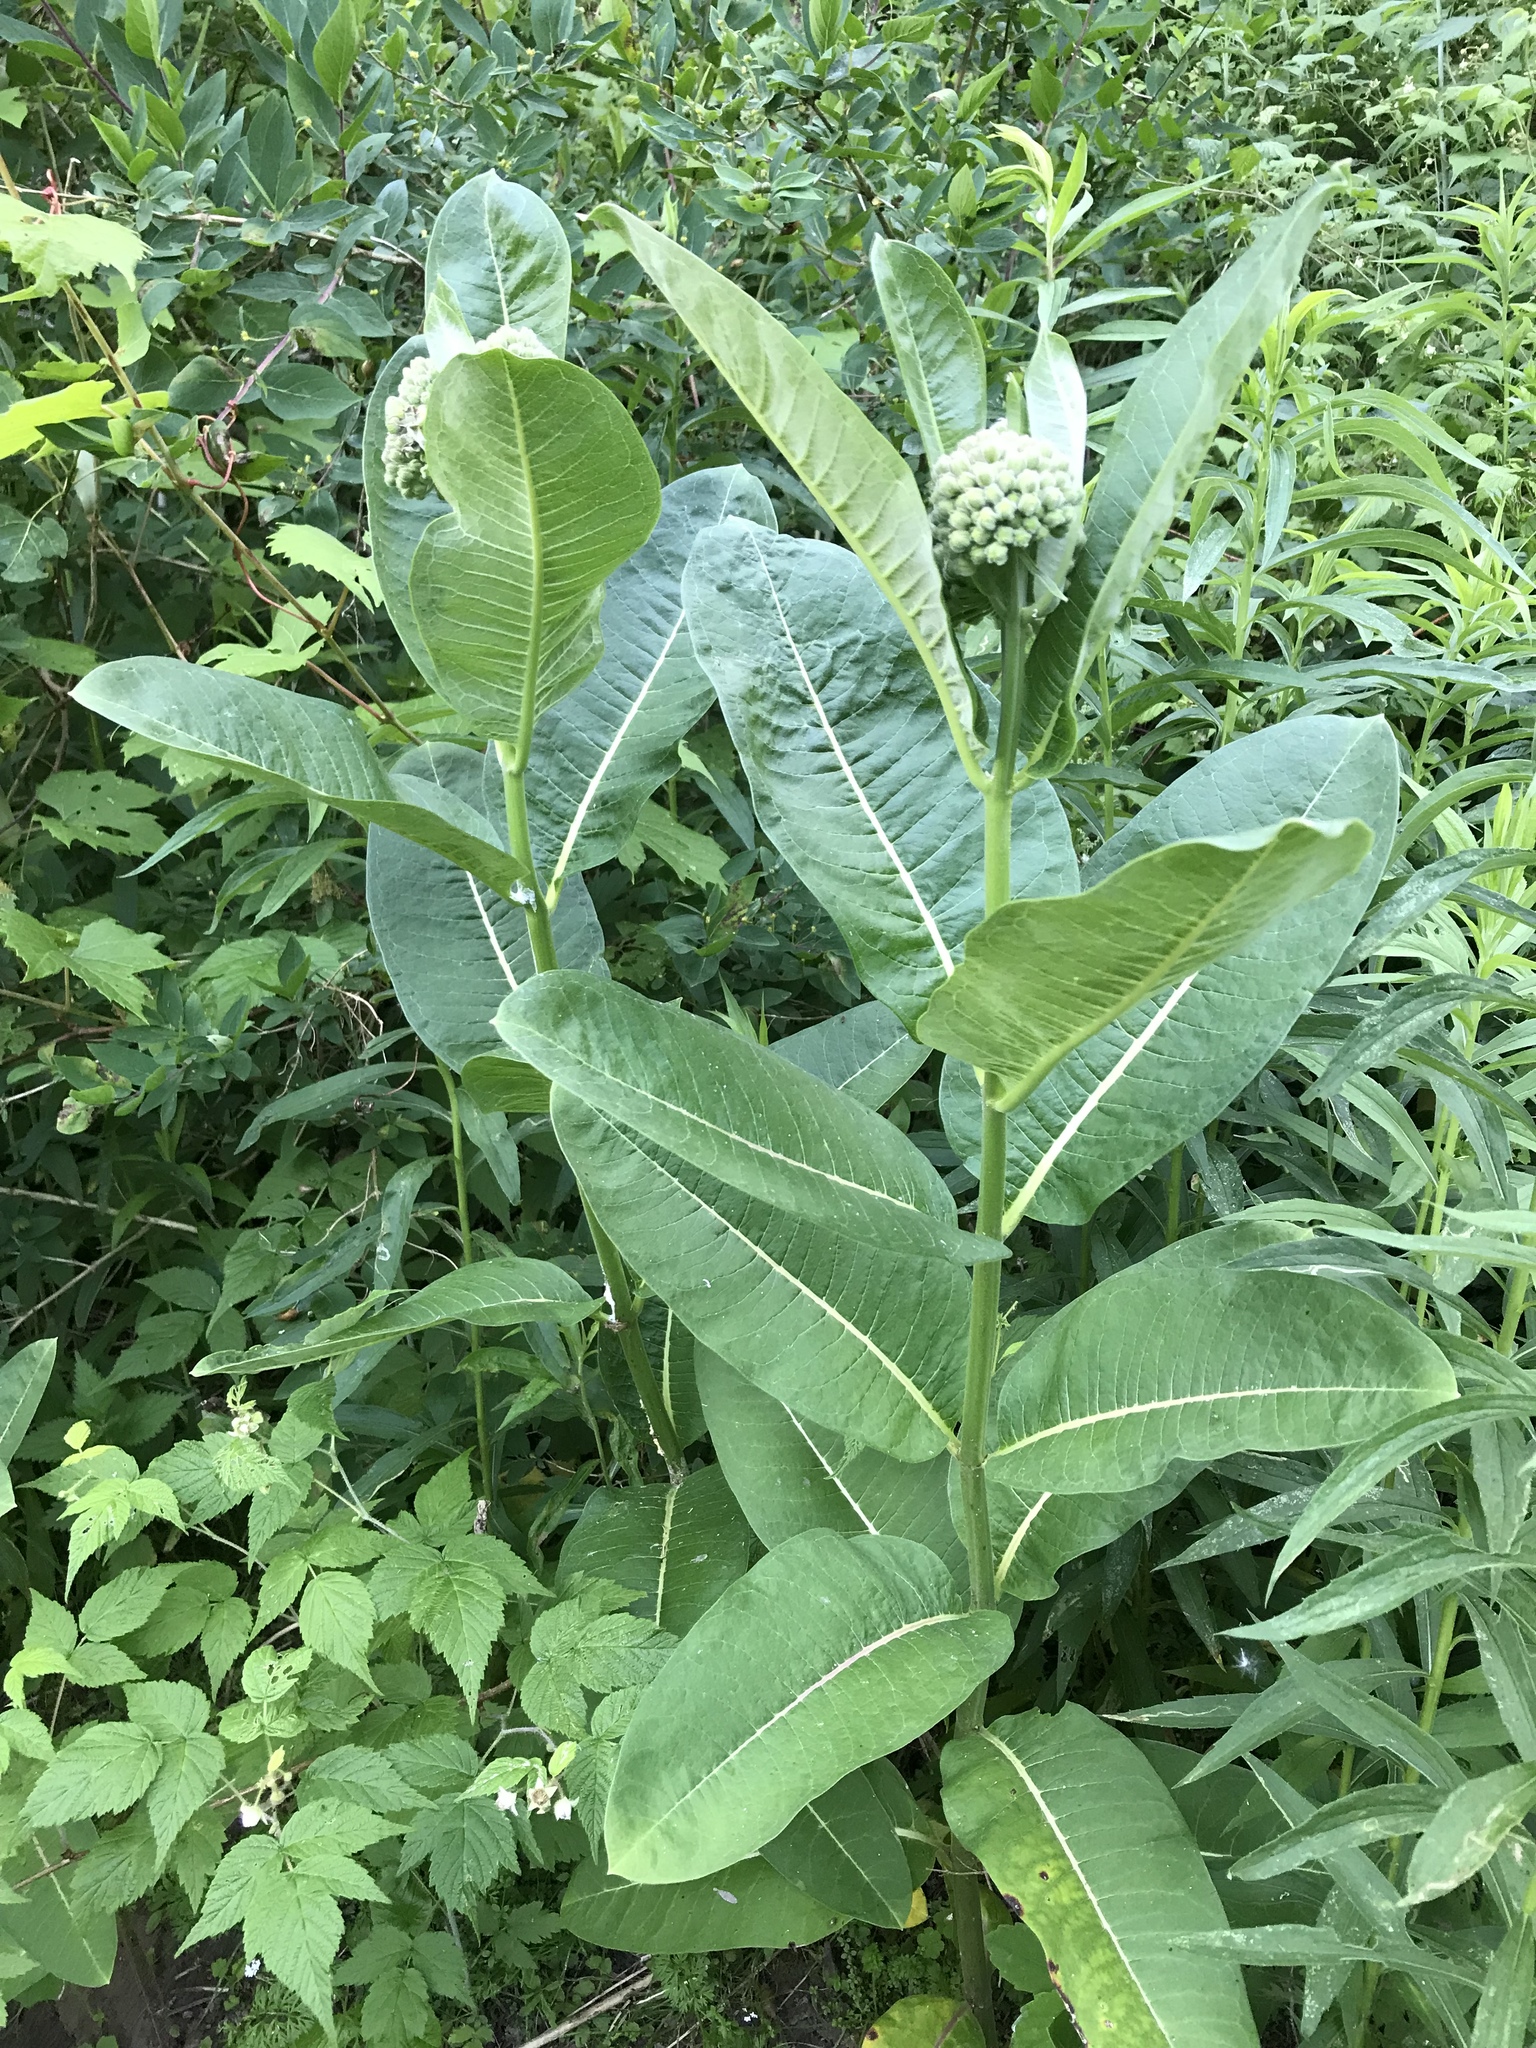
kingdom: Plantae
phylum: Tracheophyta
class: Magnoliopsida
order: Gentianales
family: Apocynaceae
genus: Asclepias
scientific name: Asclepias syriaca
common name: Common milkweed
